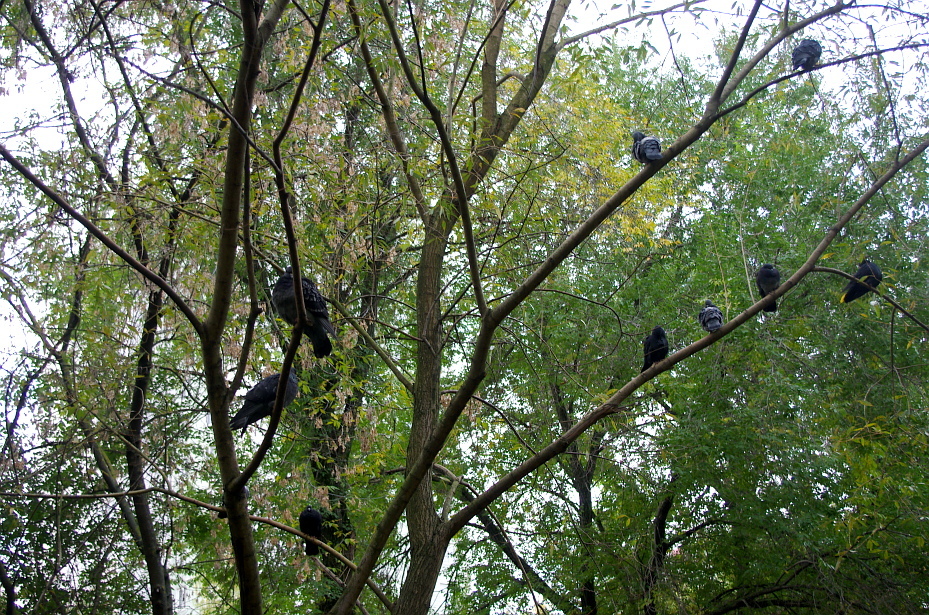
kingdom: Animalia
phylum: Chordata
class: Aves
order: Columbiformes
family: Columbidae
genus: Columba
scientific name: Columba livia
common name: Rock pigeon
